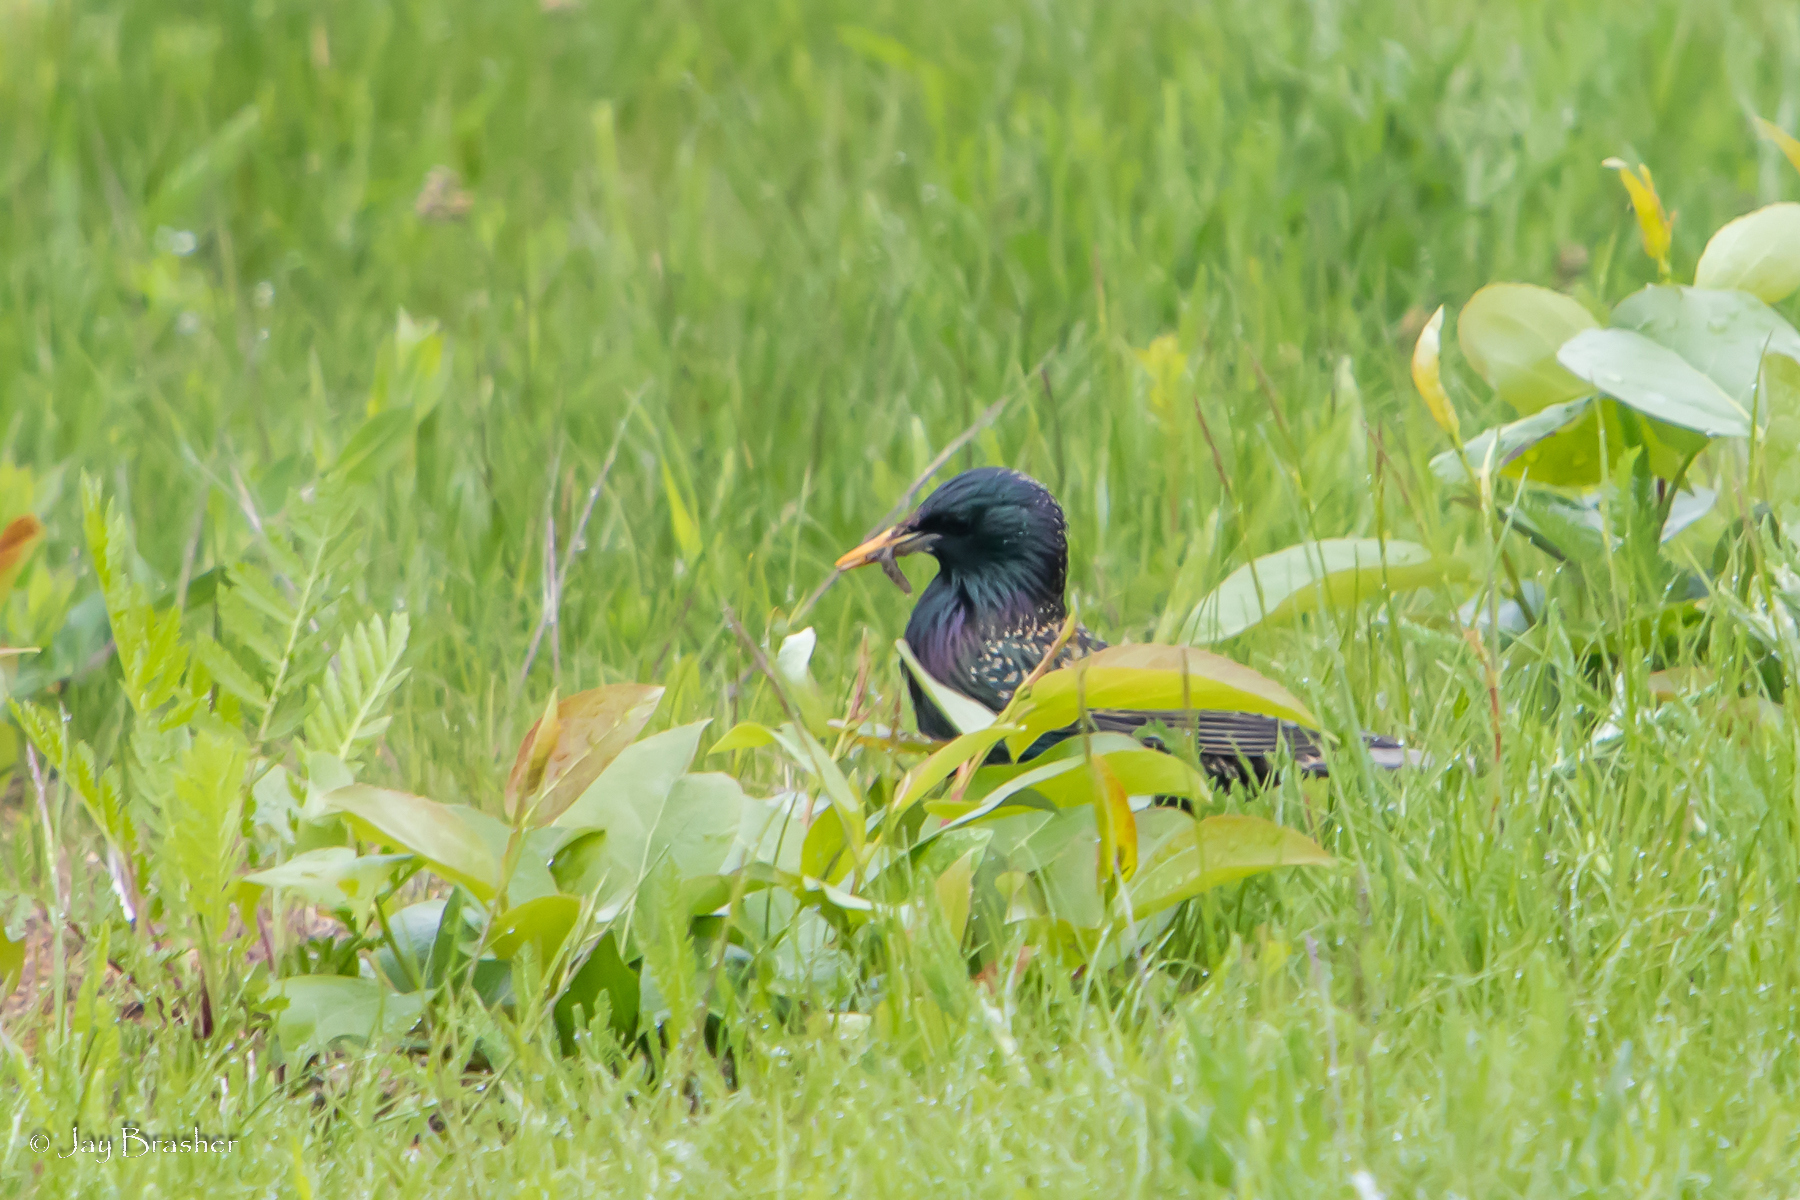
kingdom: Animalia
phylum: Chordata
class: Aves
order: Passeriformes
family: Sturnidae
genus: Sturnus
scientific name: Sturnus vulgaris
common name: Common starling
